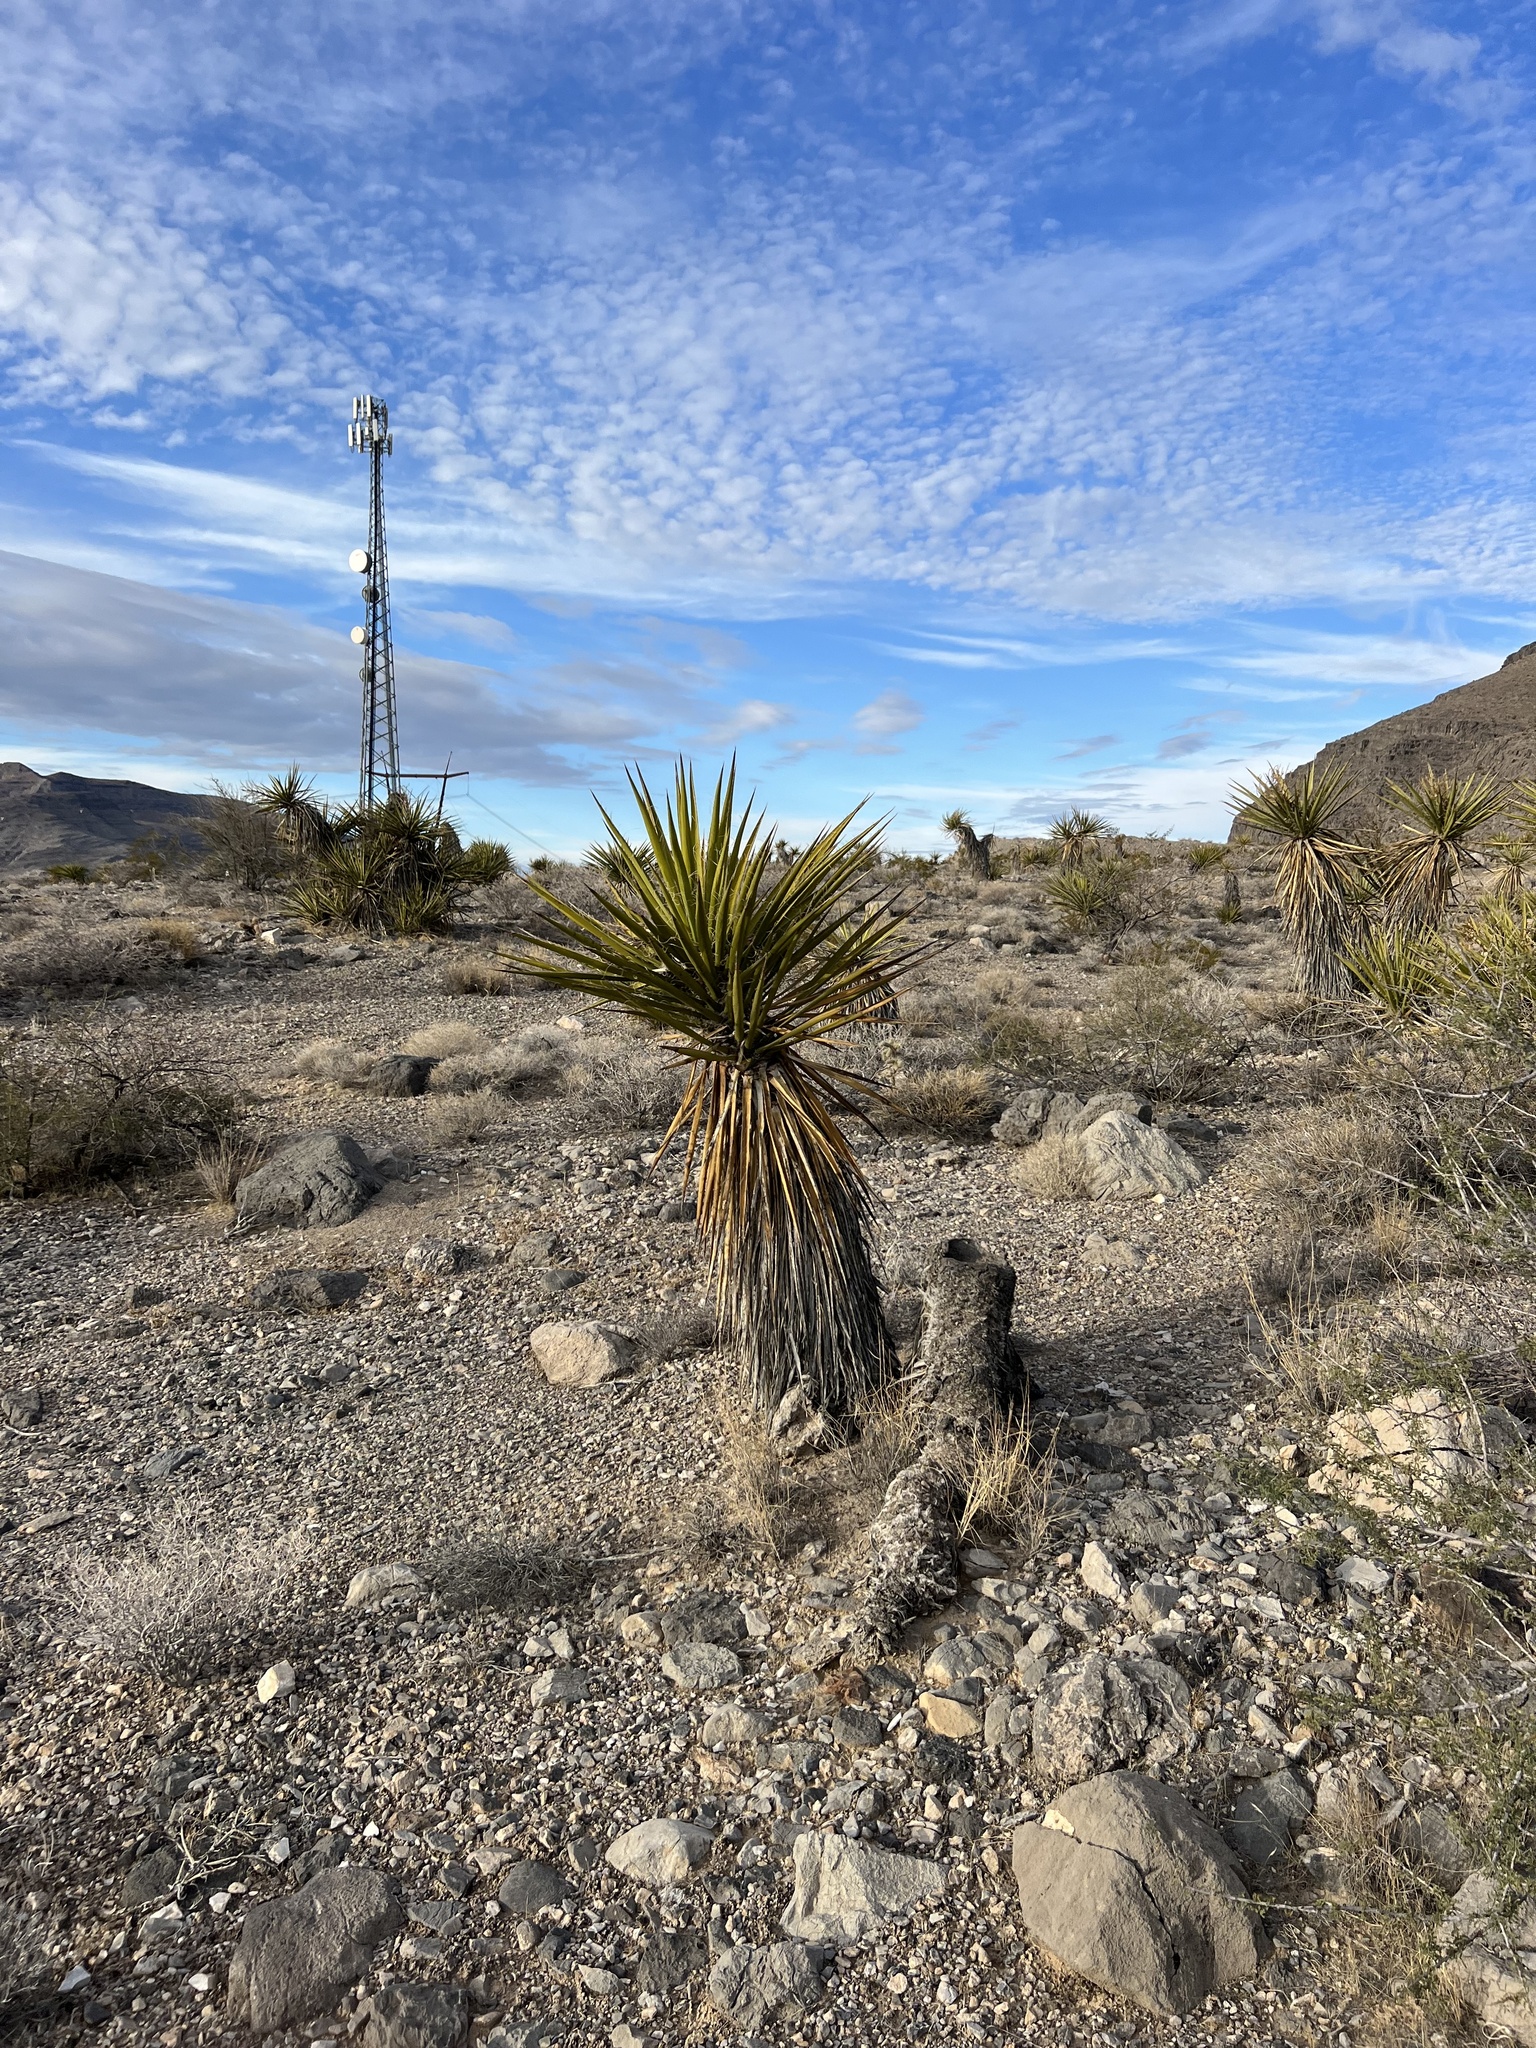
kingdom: Plantae
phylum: Tracheophyta
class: Liliopsida
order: Asparagales
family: Asparagaceae
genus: Yucca
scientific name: Yucca schidigera
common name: Mojave yucca
